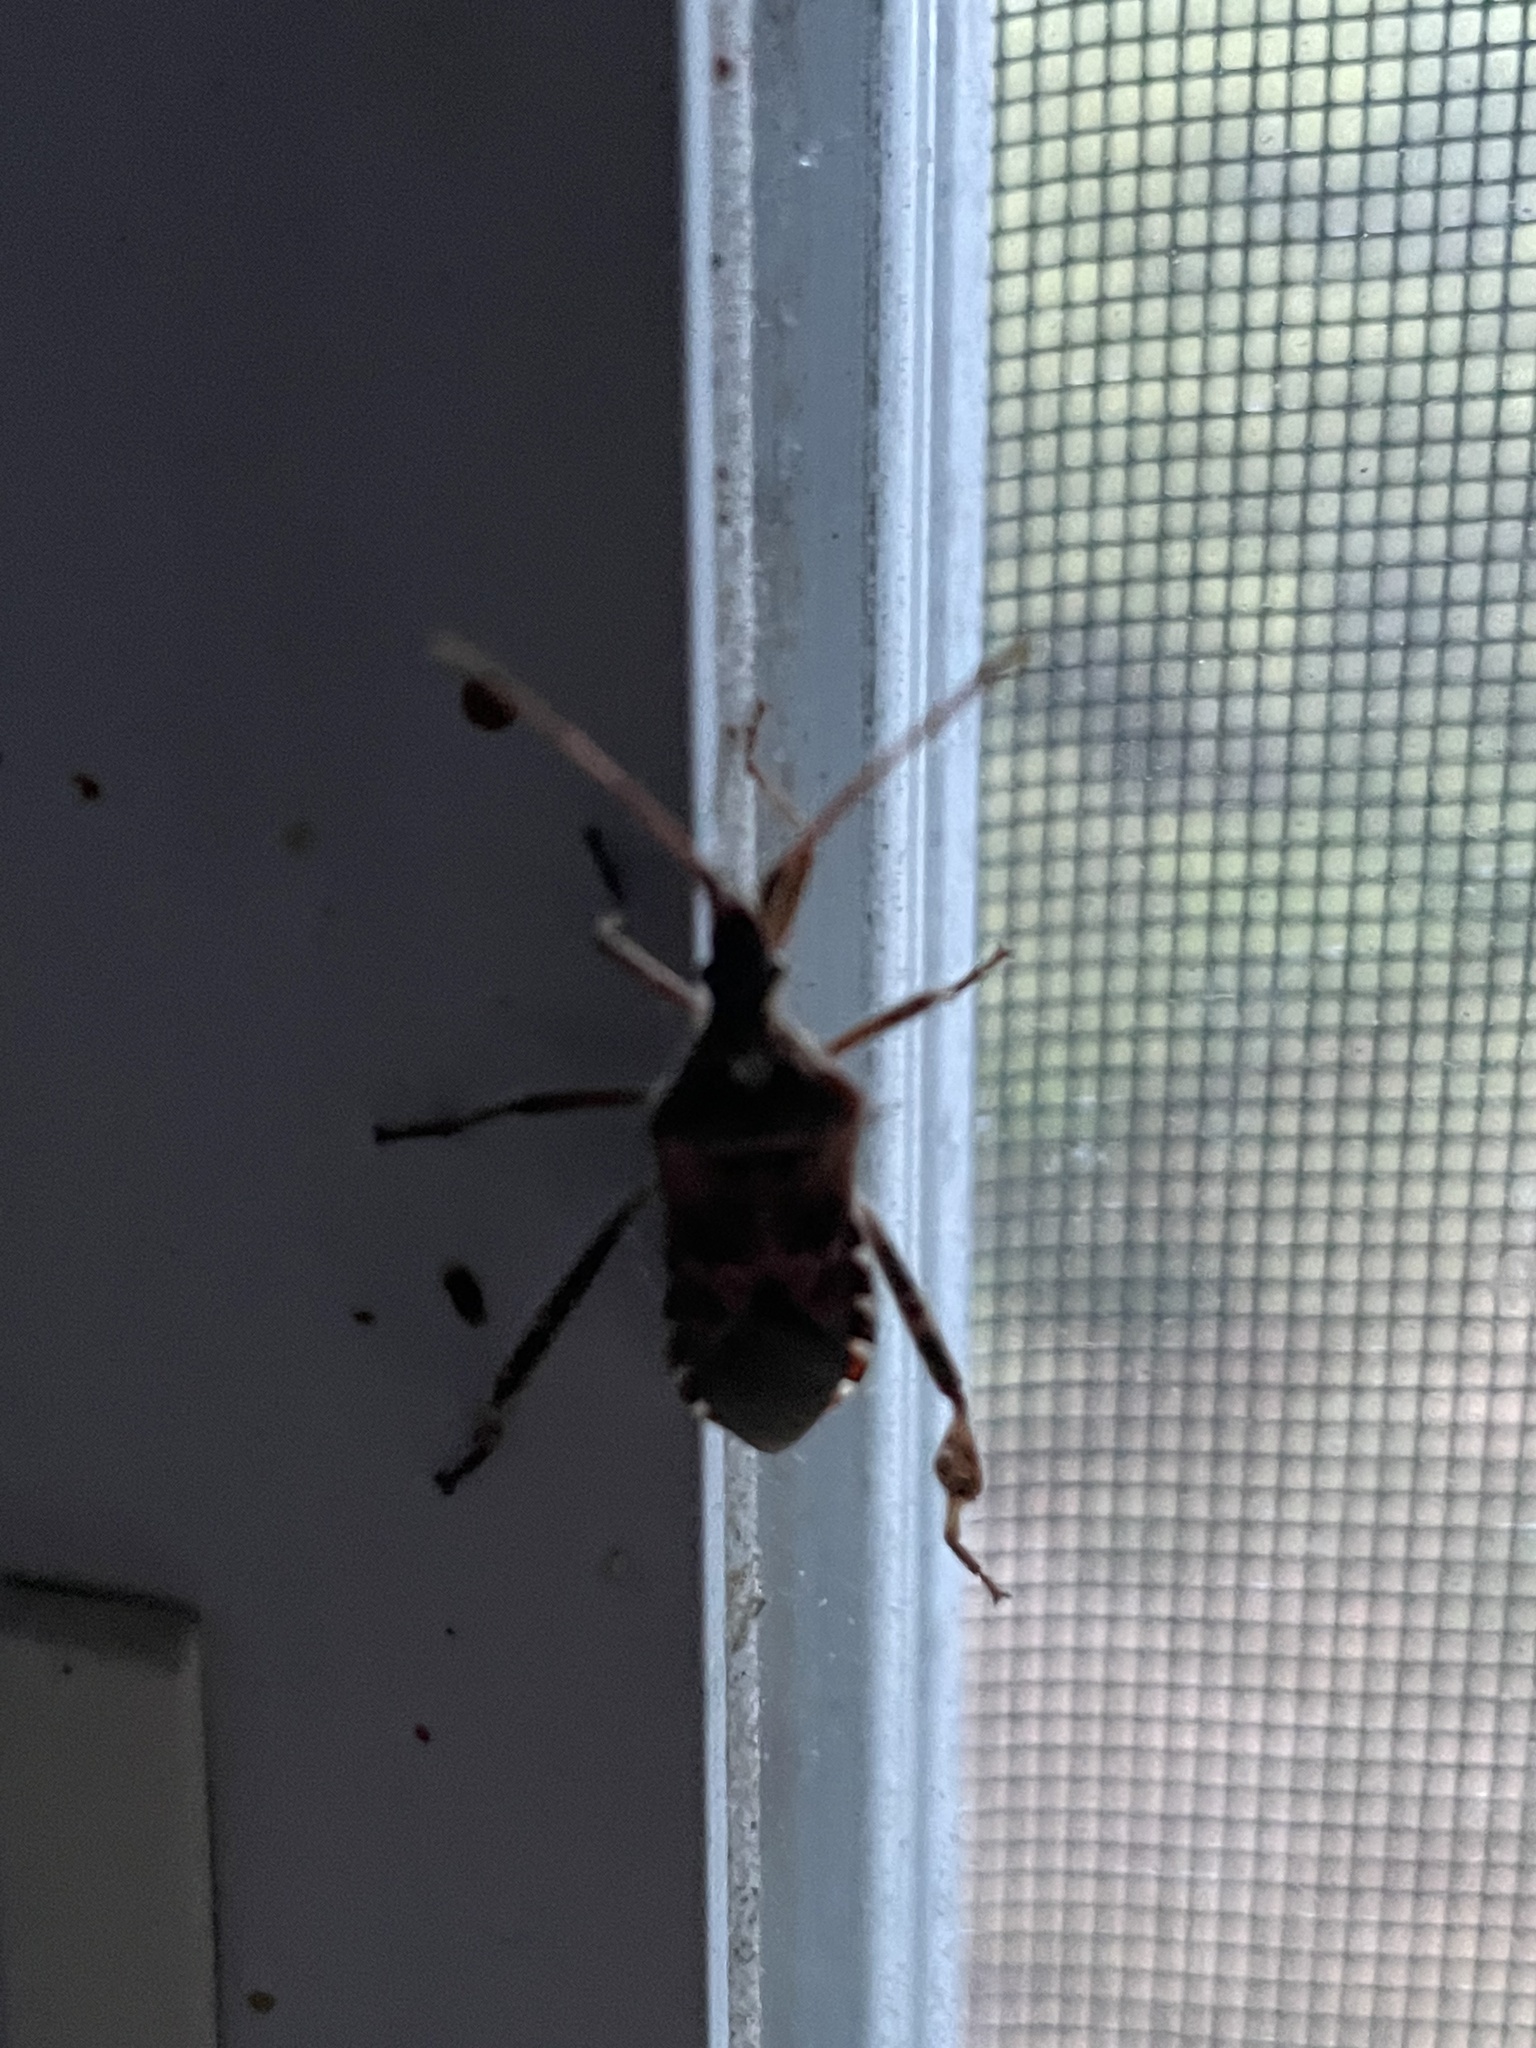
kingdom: Animalia
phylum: Arthropoda
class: Insecta
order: Hemiptera
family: Coreidae
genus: Leptoglossus
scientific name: Leptoglossus occidentalis
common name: Western conifer-seed bug
